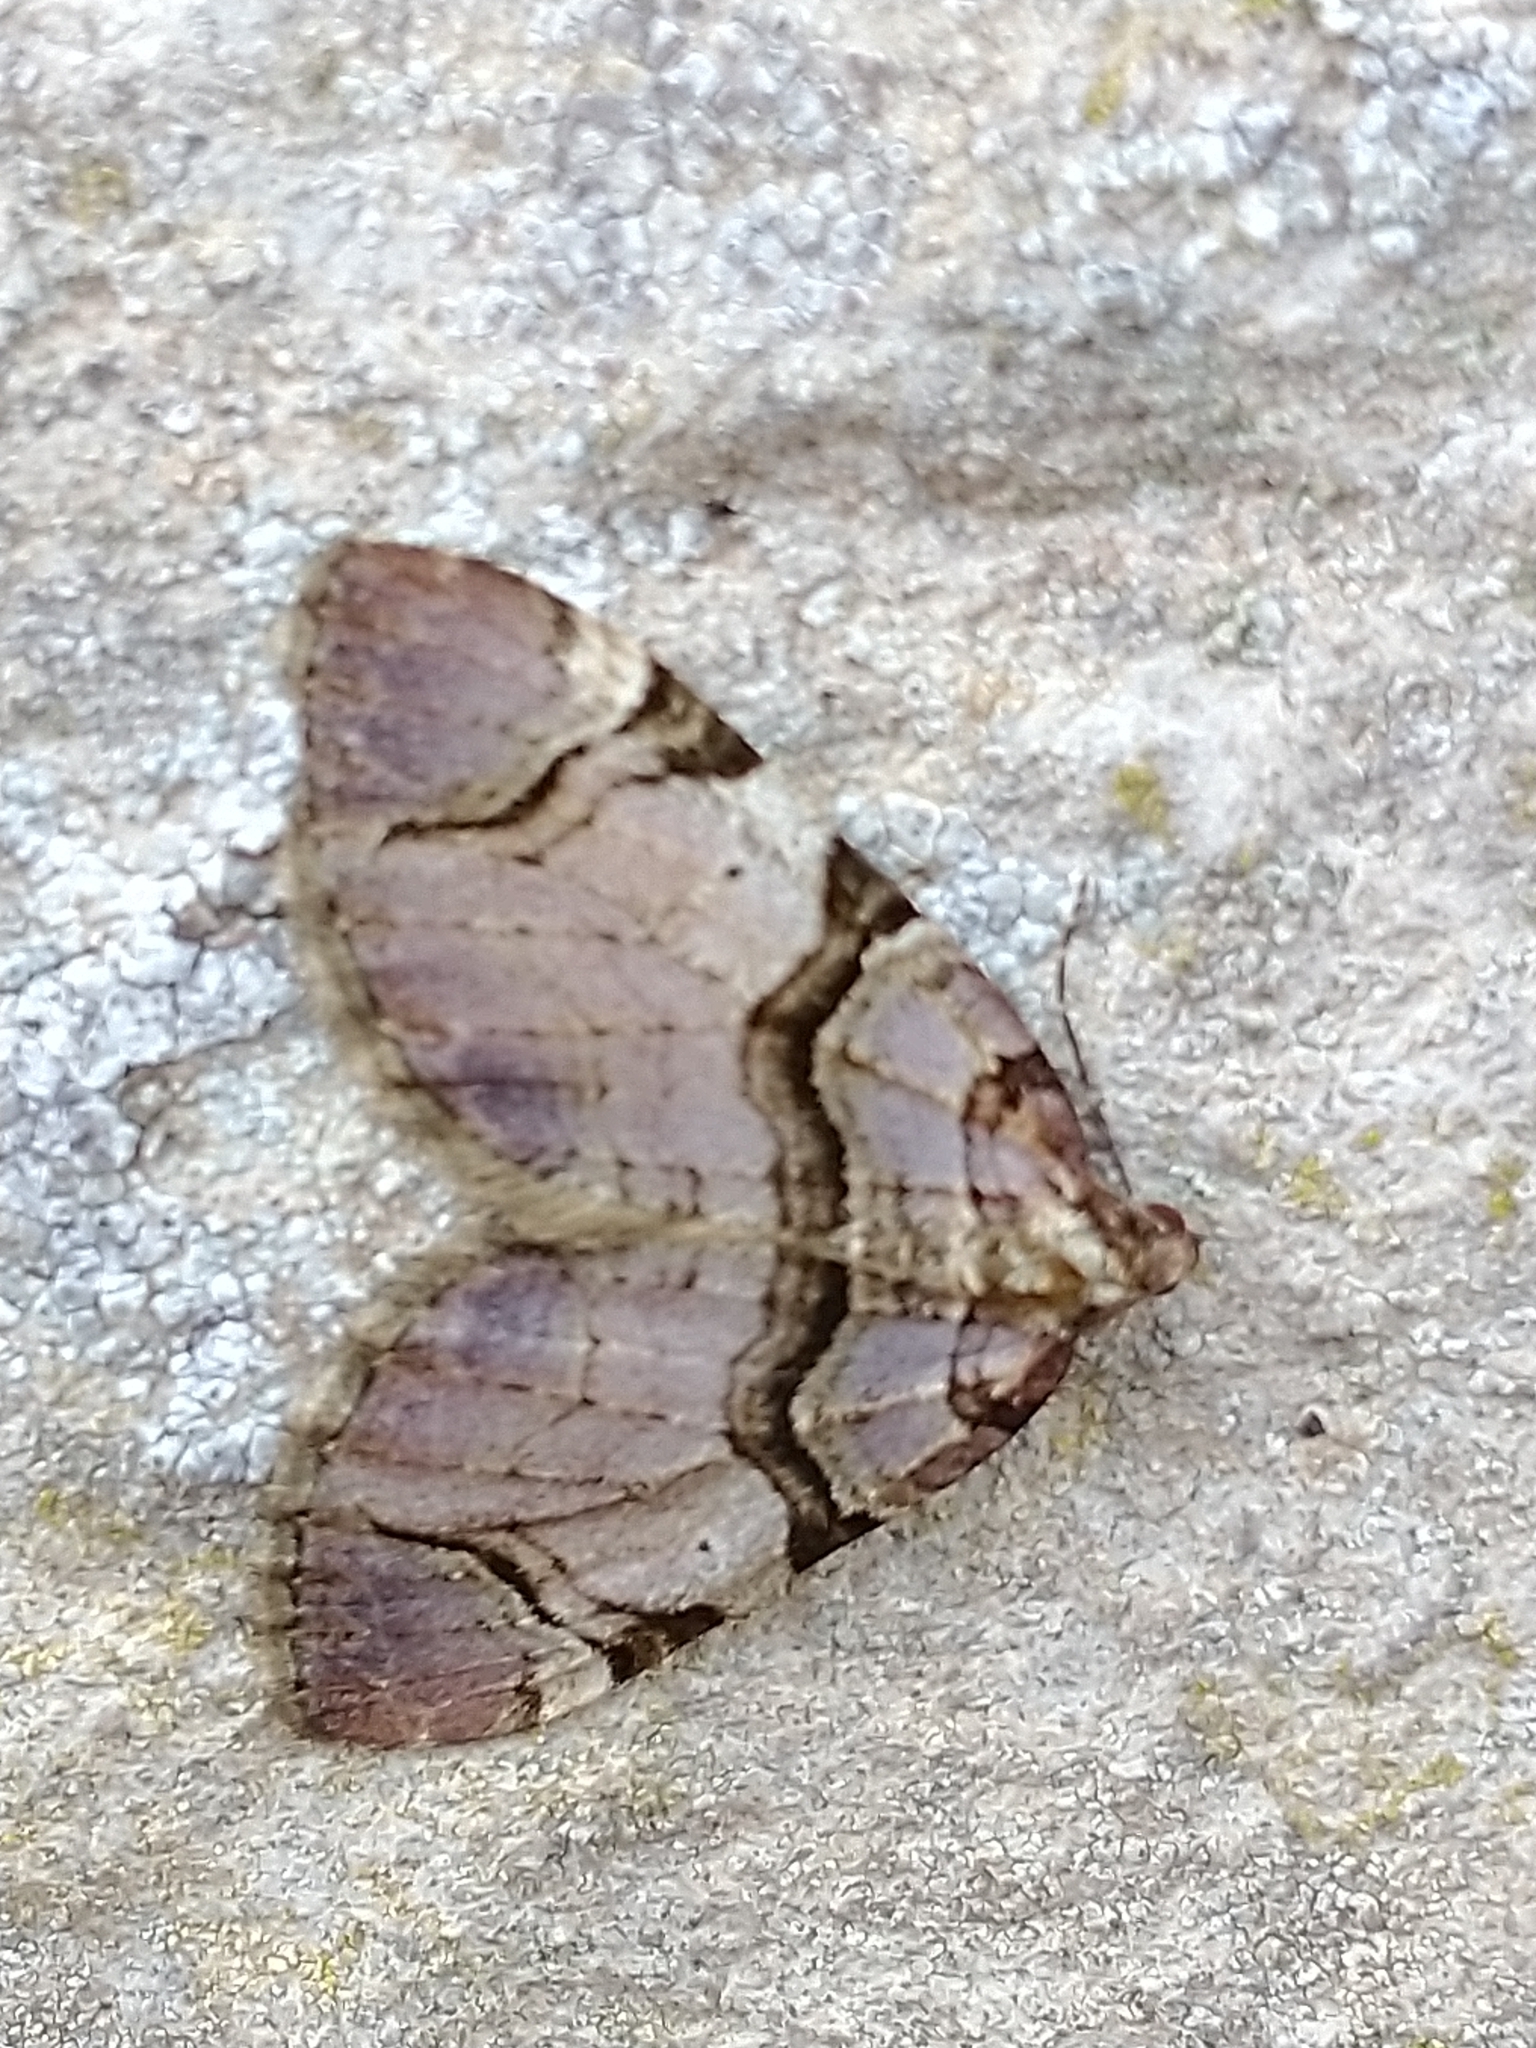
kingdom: Animalia
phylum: Arthropoda
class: Insecta
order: Lepidoptera
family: Geometridae
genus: Anticlea
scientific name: Anticlea derivata
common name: Streamer
